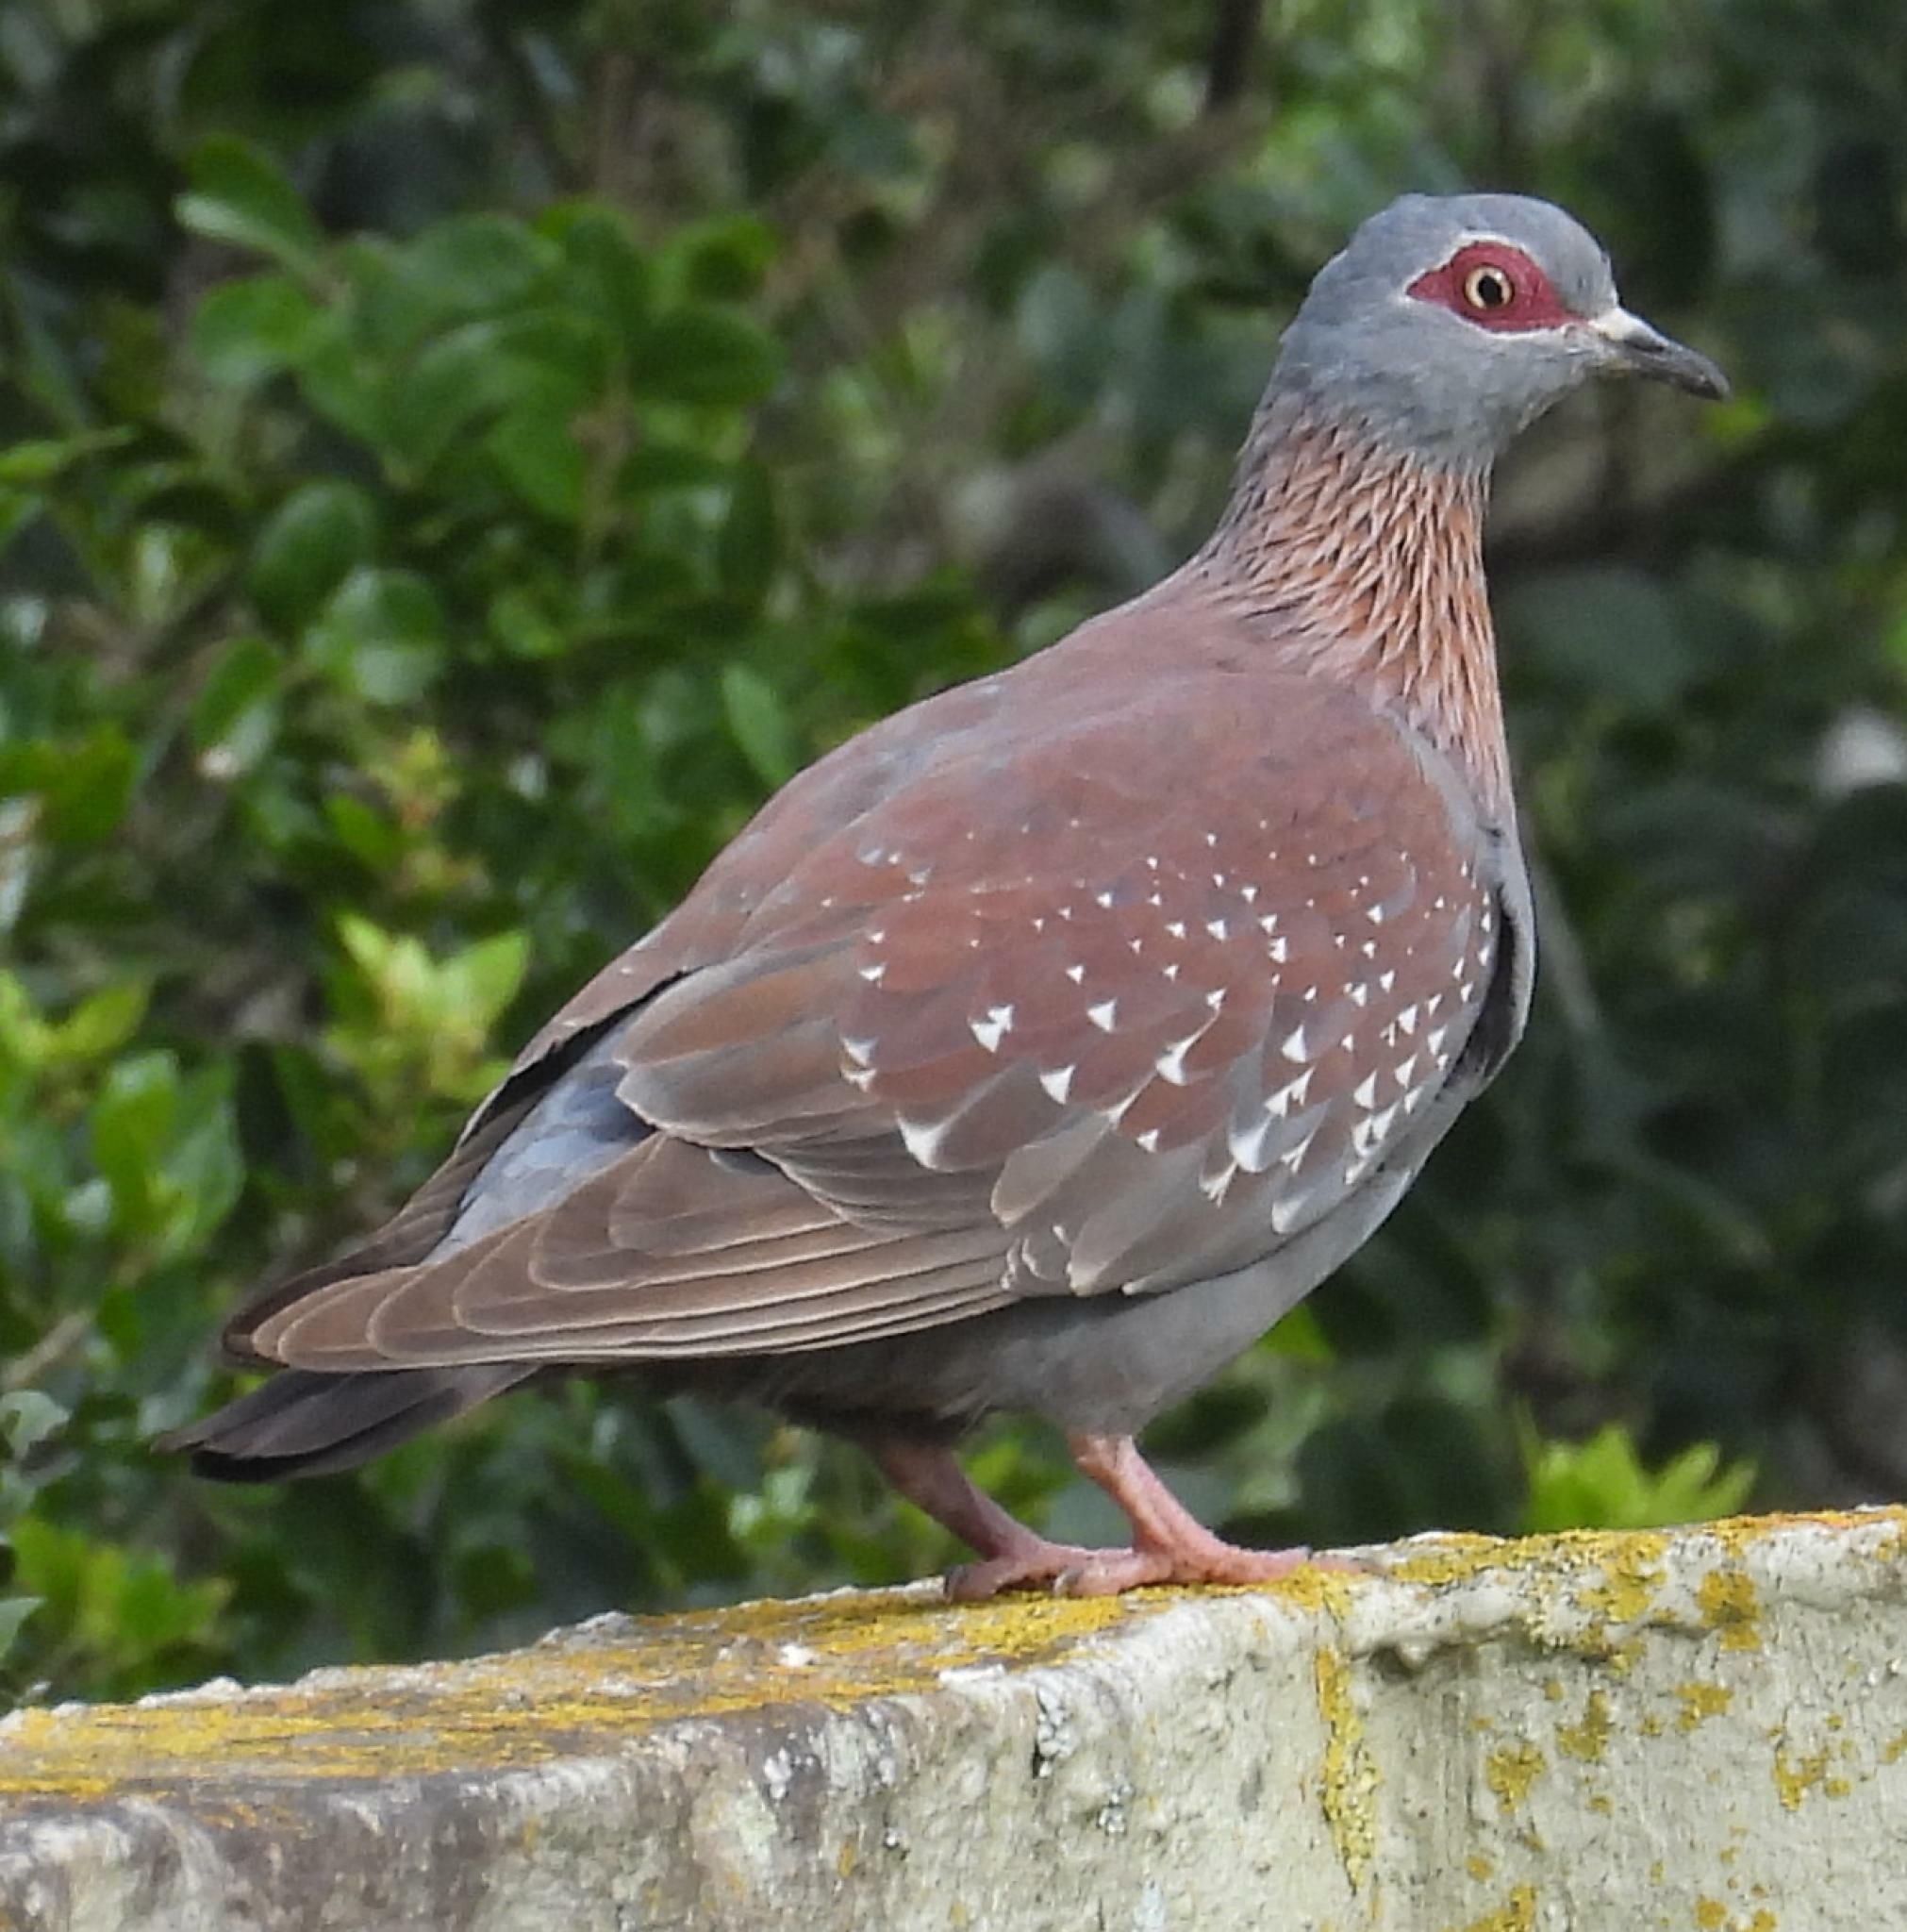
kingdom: Animalia
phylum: Chordata
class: Aves
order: Columbiformes
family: Columbidae
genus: Columba
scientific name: Columba guinea
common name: Speckled pigeon
